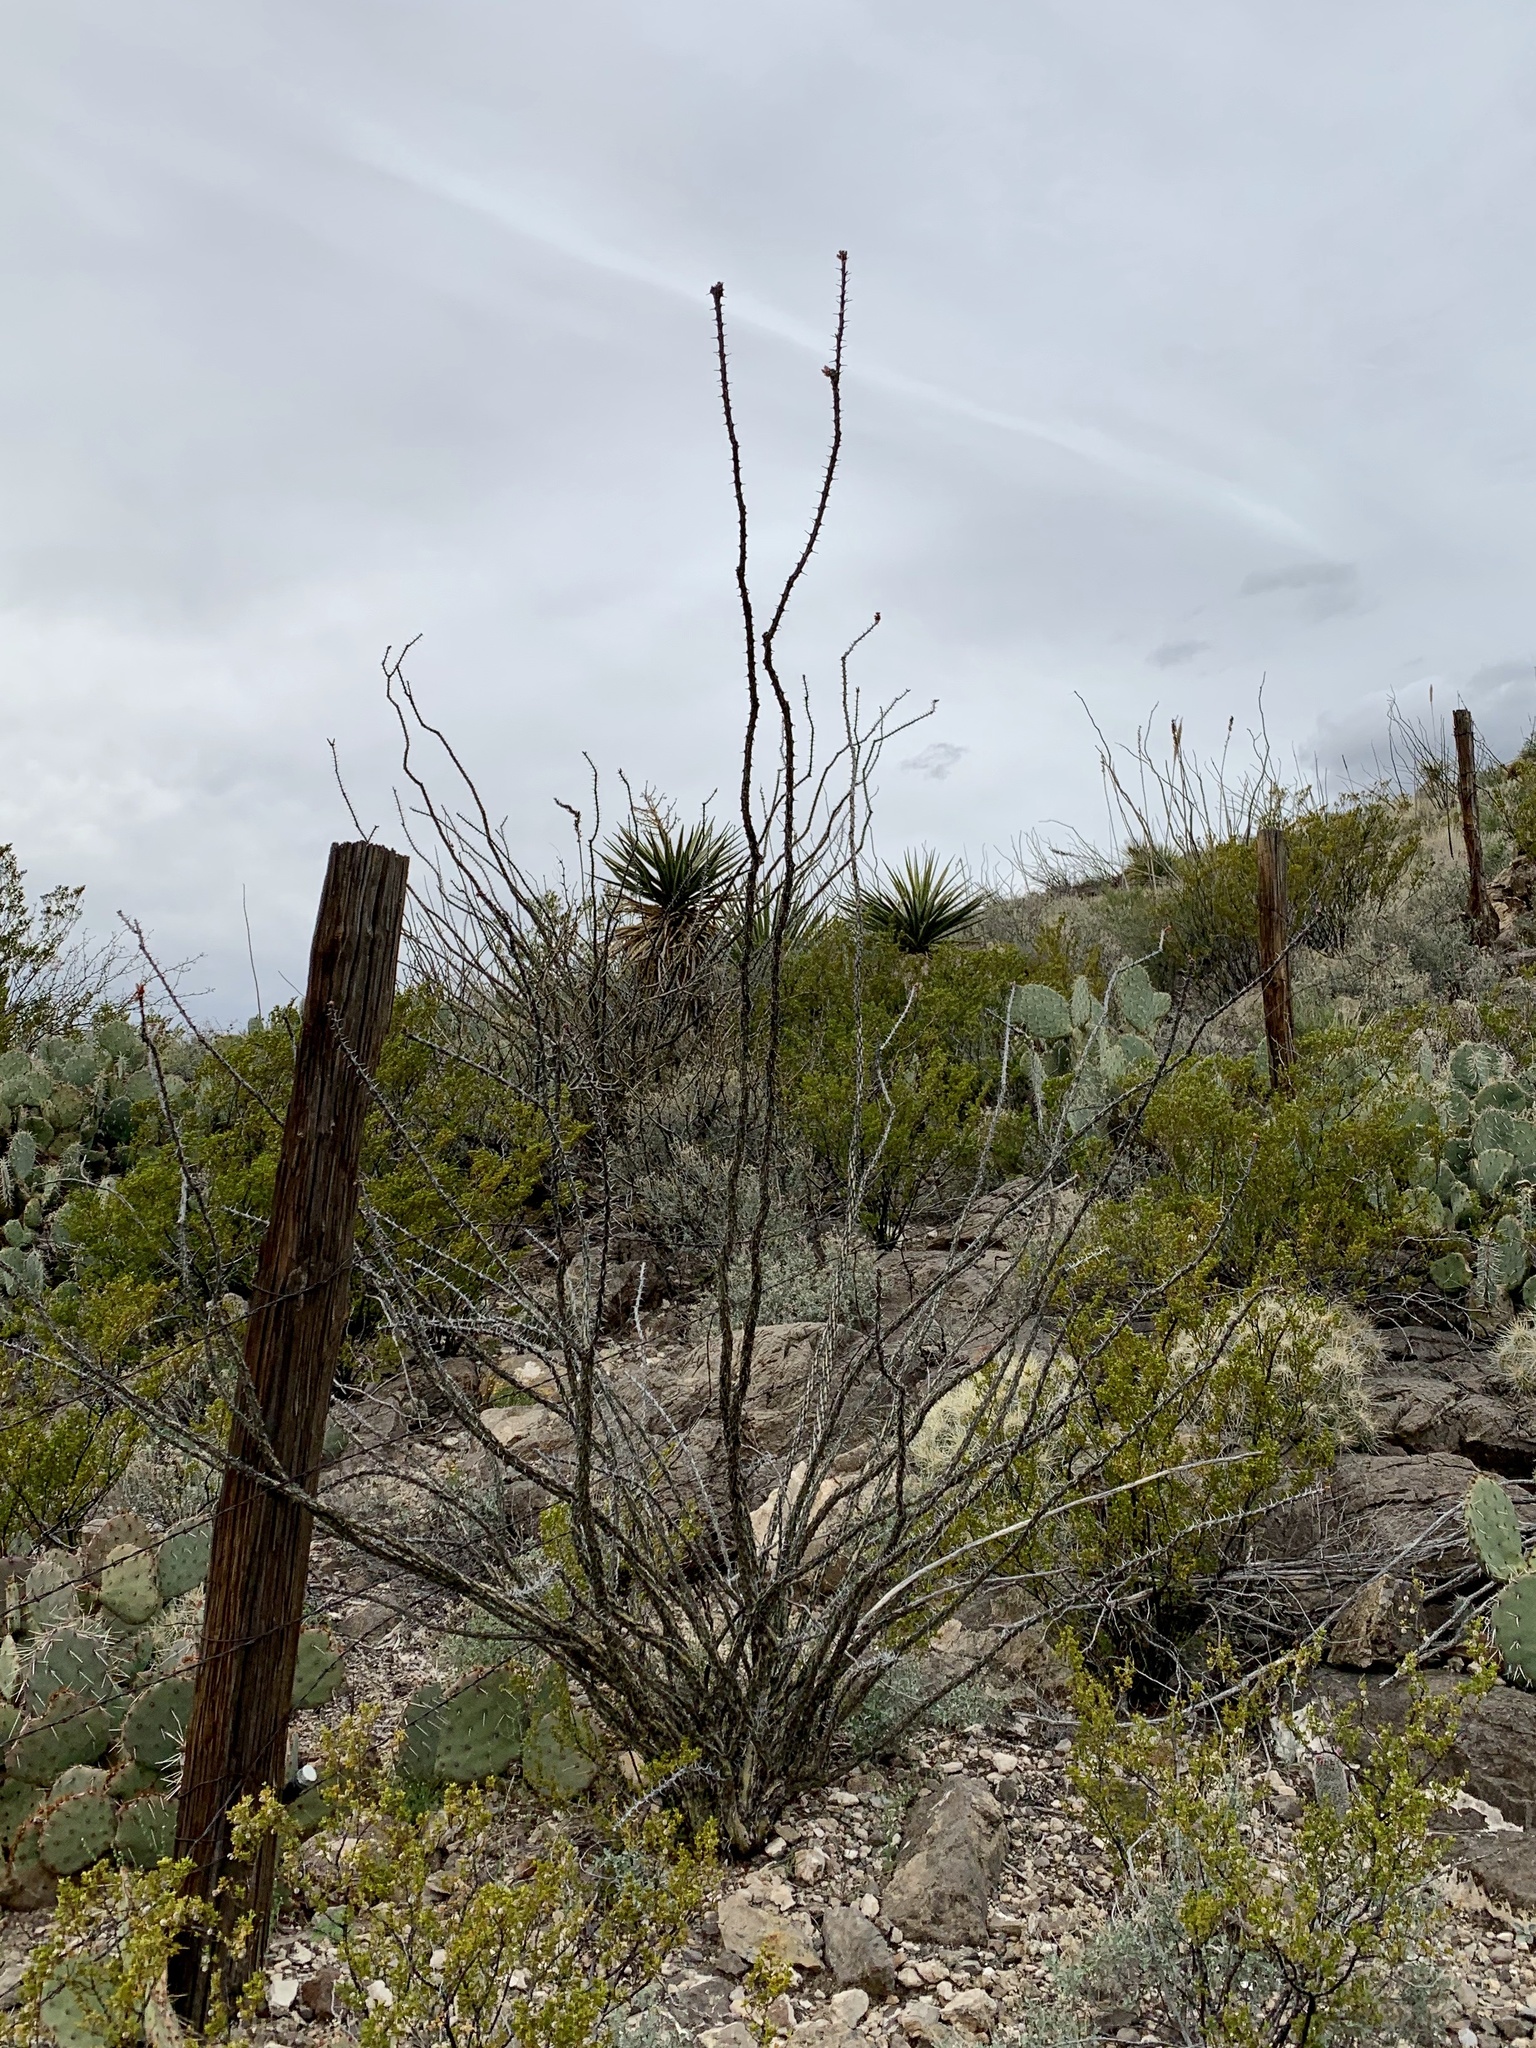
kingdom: Plantae
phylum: Tracheophyta
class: Magnoliopsida
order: Ericales
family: Fouquieriaceae
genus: Fouquieria
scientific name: Fouquieria splendens
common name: Vine-cactus
